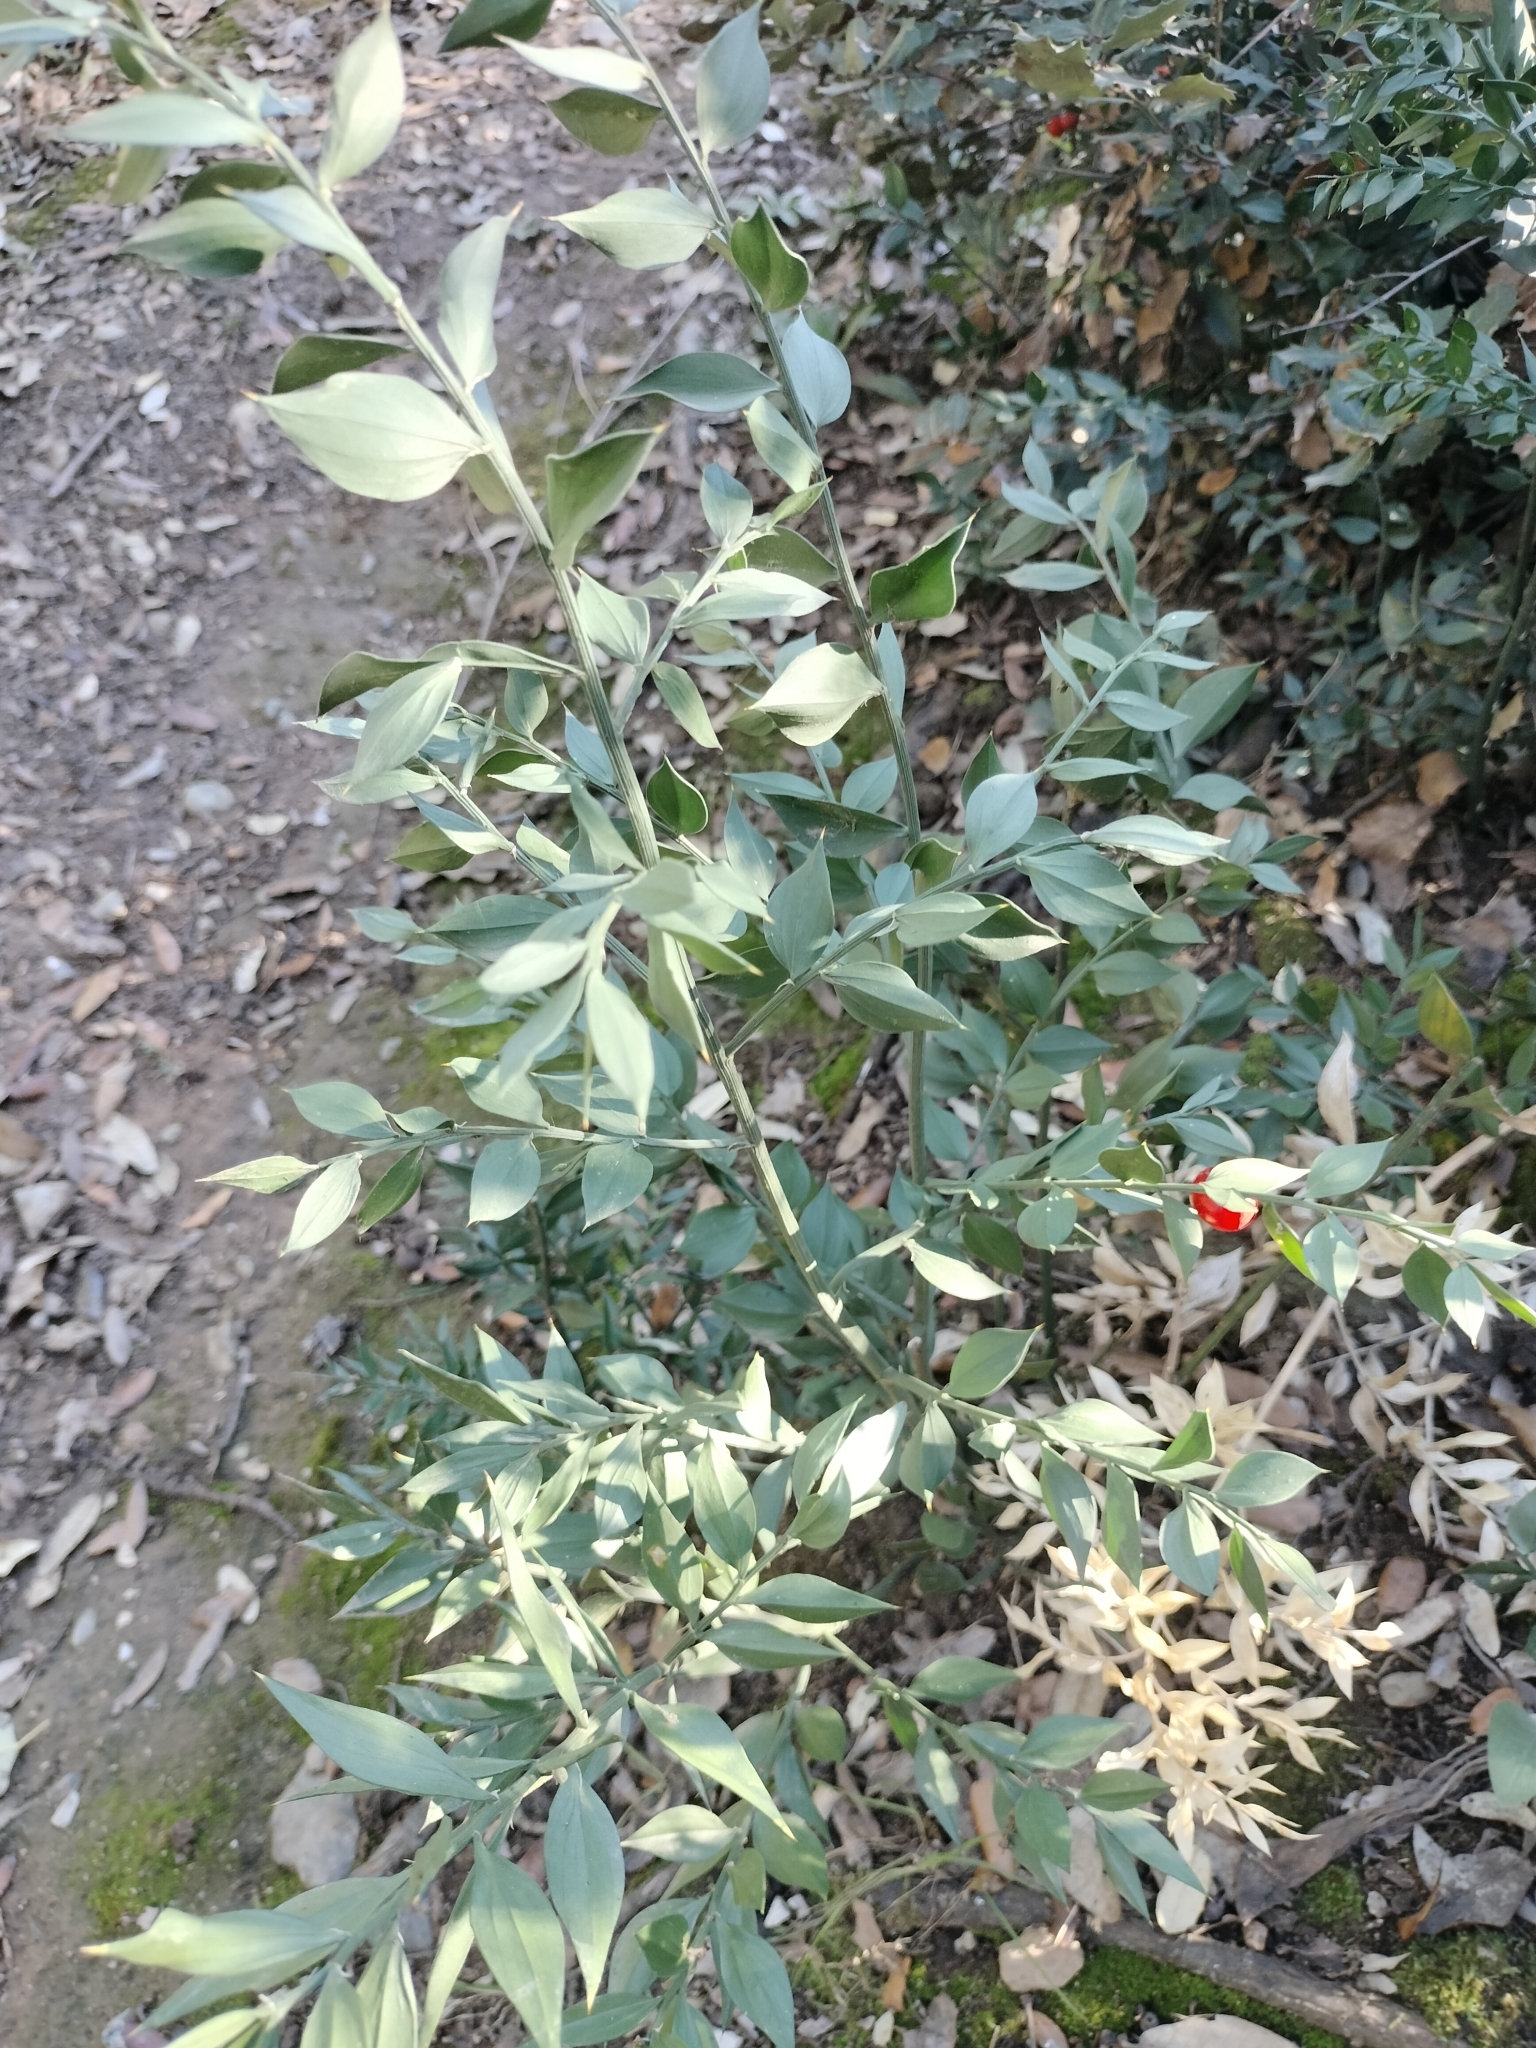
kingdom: Plantae
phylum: Tracheophyta
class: Liliopsida
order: Asparagales
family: Asparagaceae
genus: Ruscus
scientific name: Ruscus aculeatus
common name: Butcher's-broom
